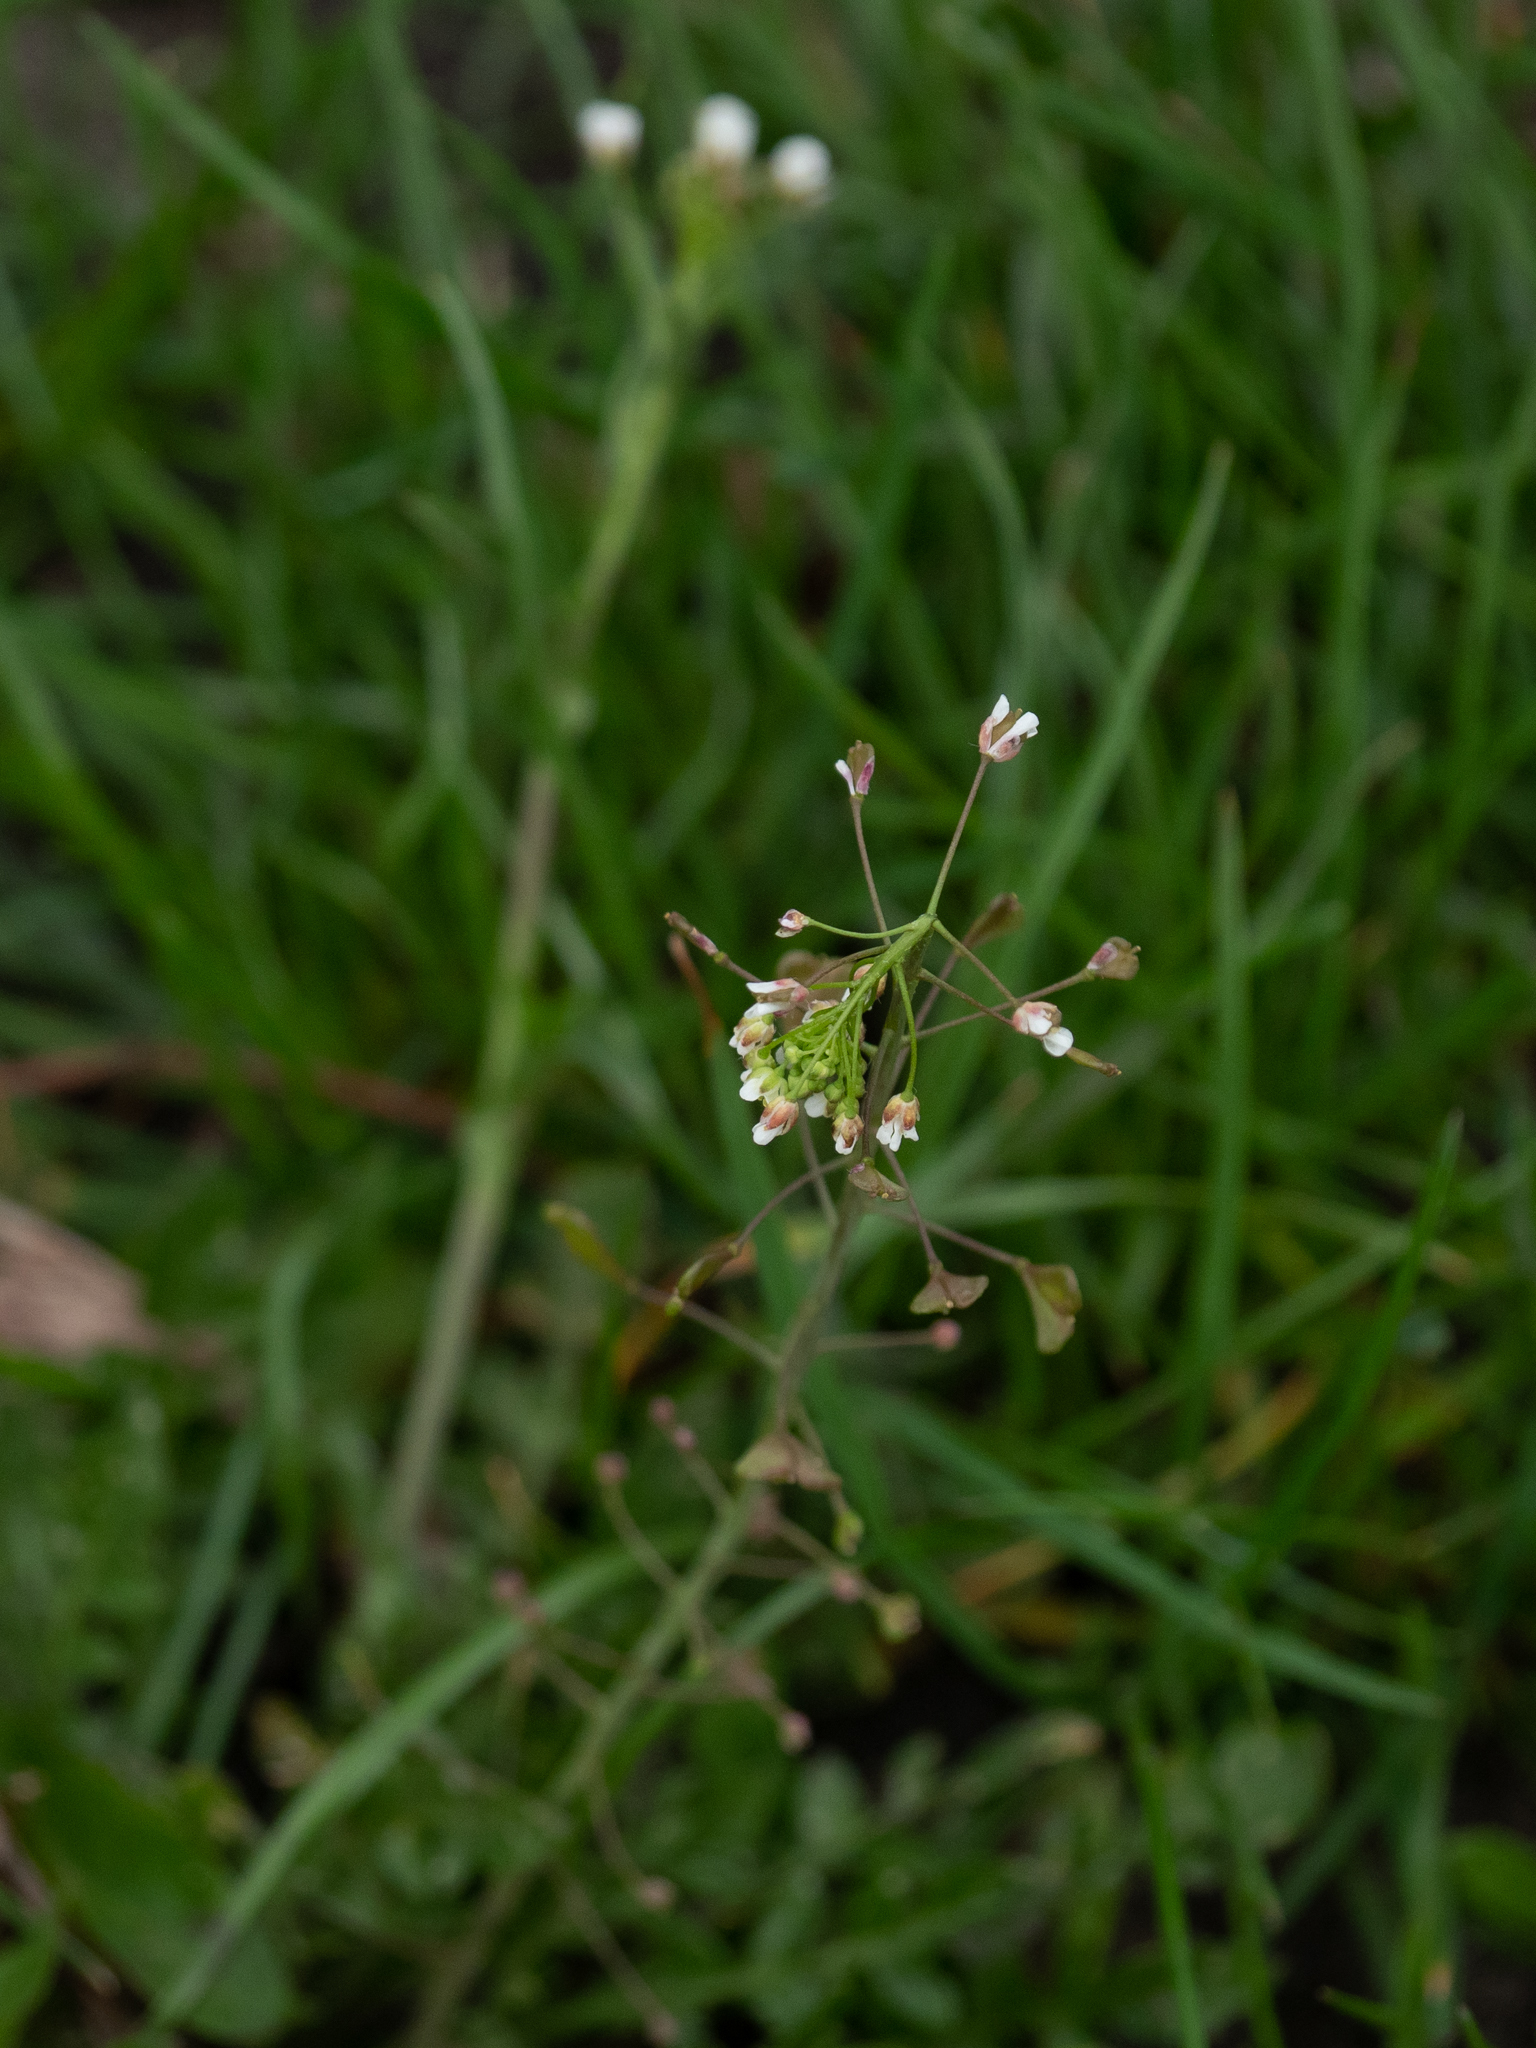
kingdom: Plantae
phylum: Tracheophyta
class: Magnoliopsida
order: Brassicales
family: Brassicaceae
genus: Capsella
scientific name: Capsella bursa-pastoris
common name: Shepherd's purse
